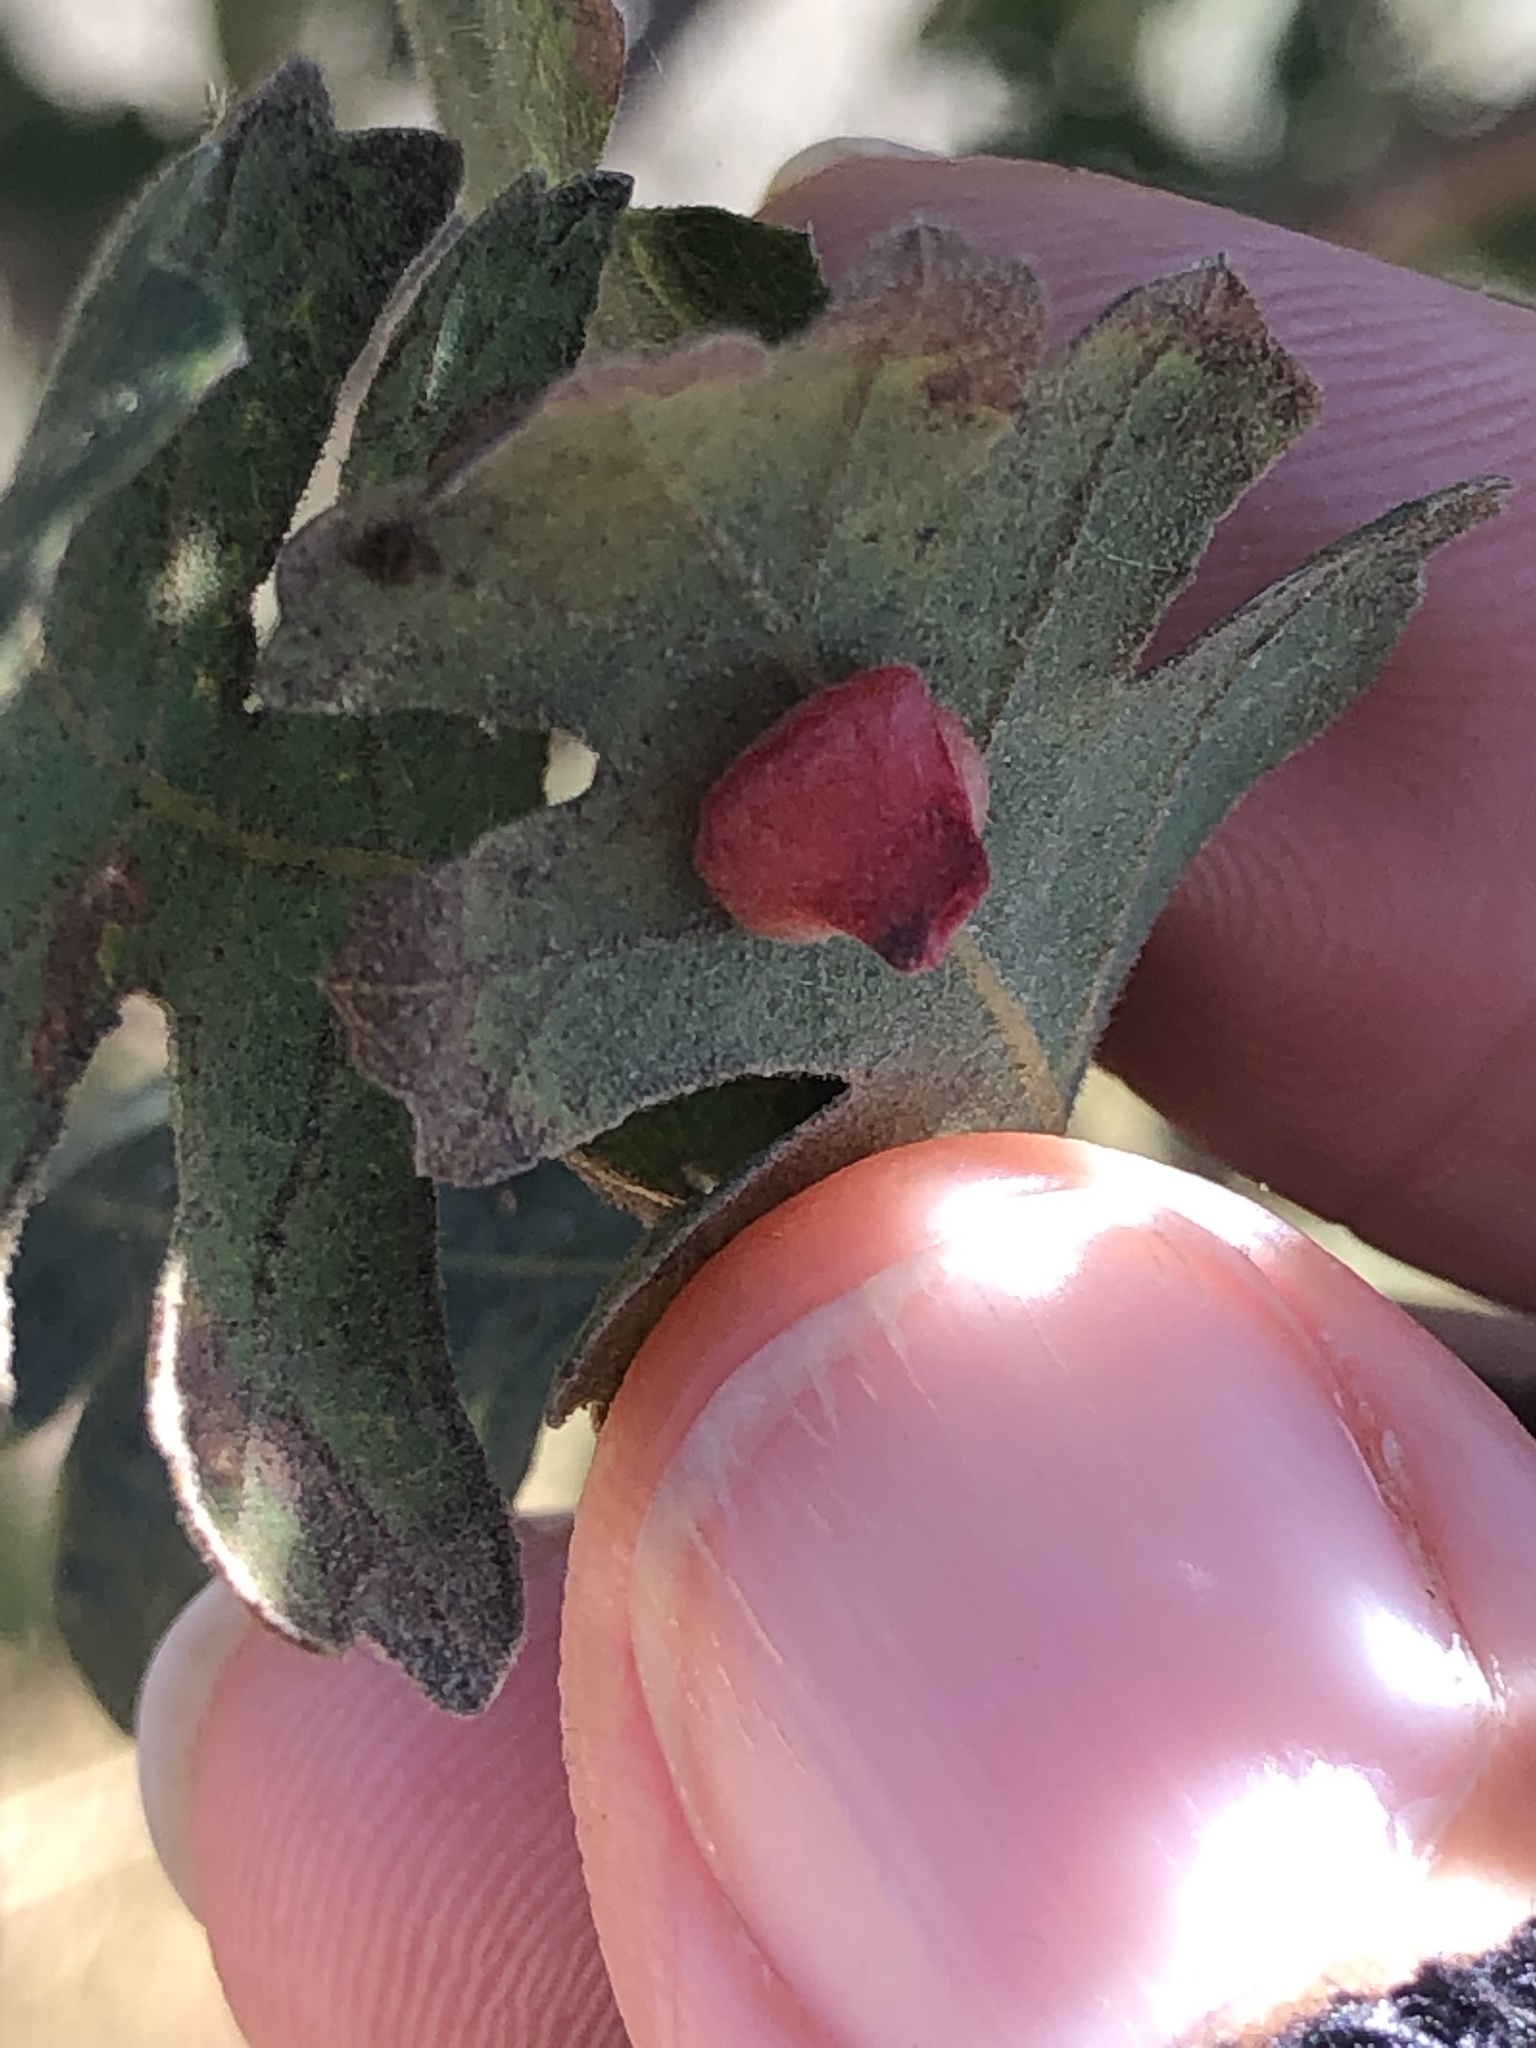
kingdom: Animalia
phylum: Arthropoda
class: Insecta
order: Hymenoptera
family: Cynipidae
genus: Andricus
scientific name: Andricus
